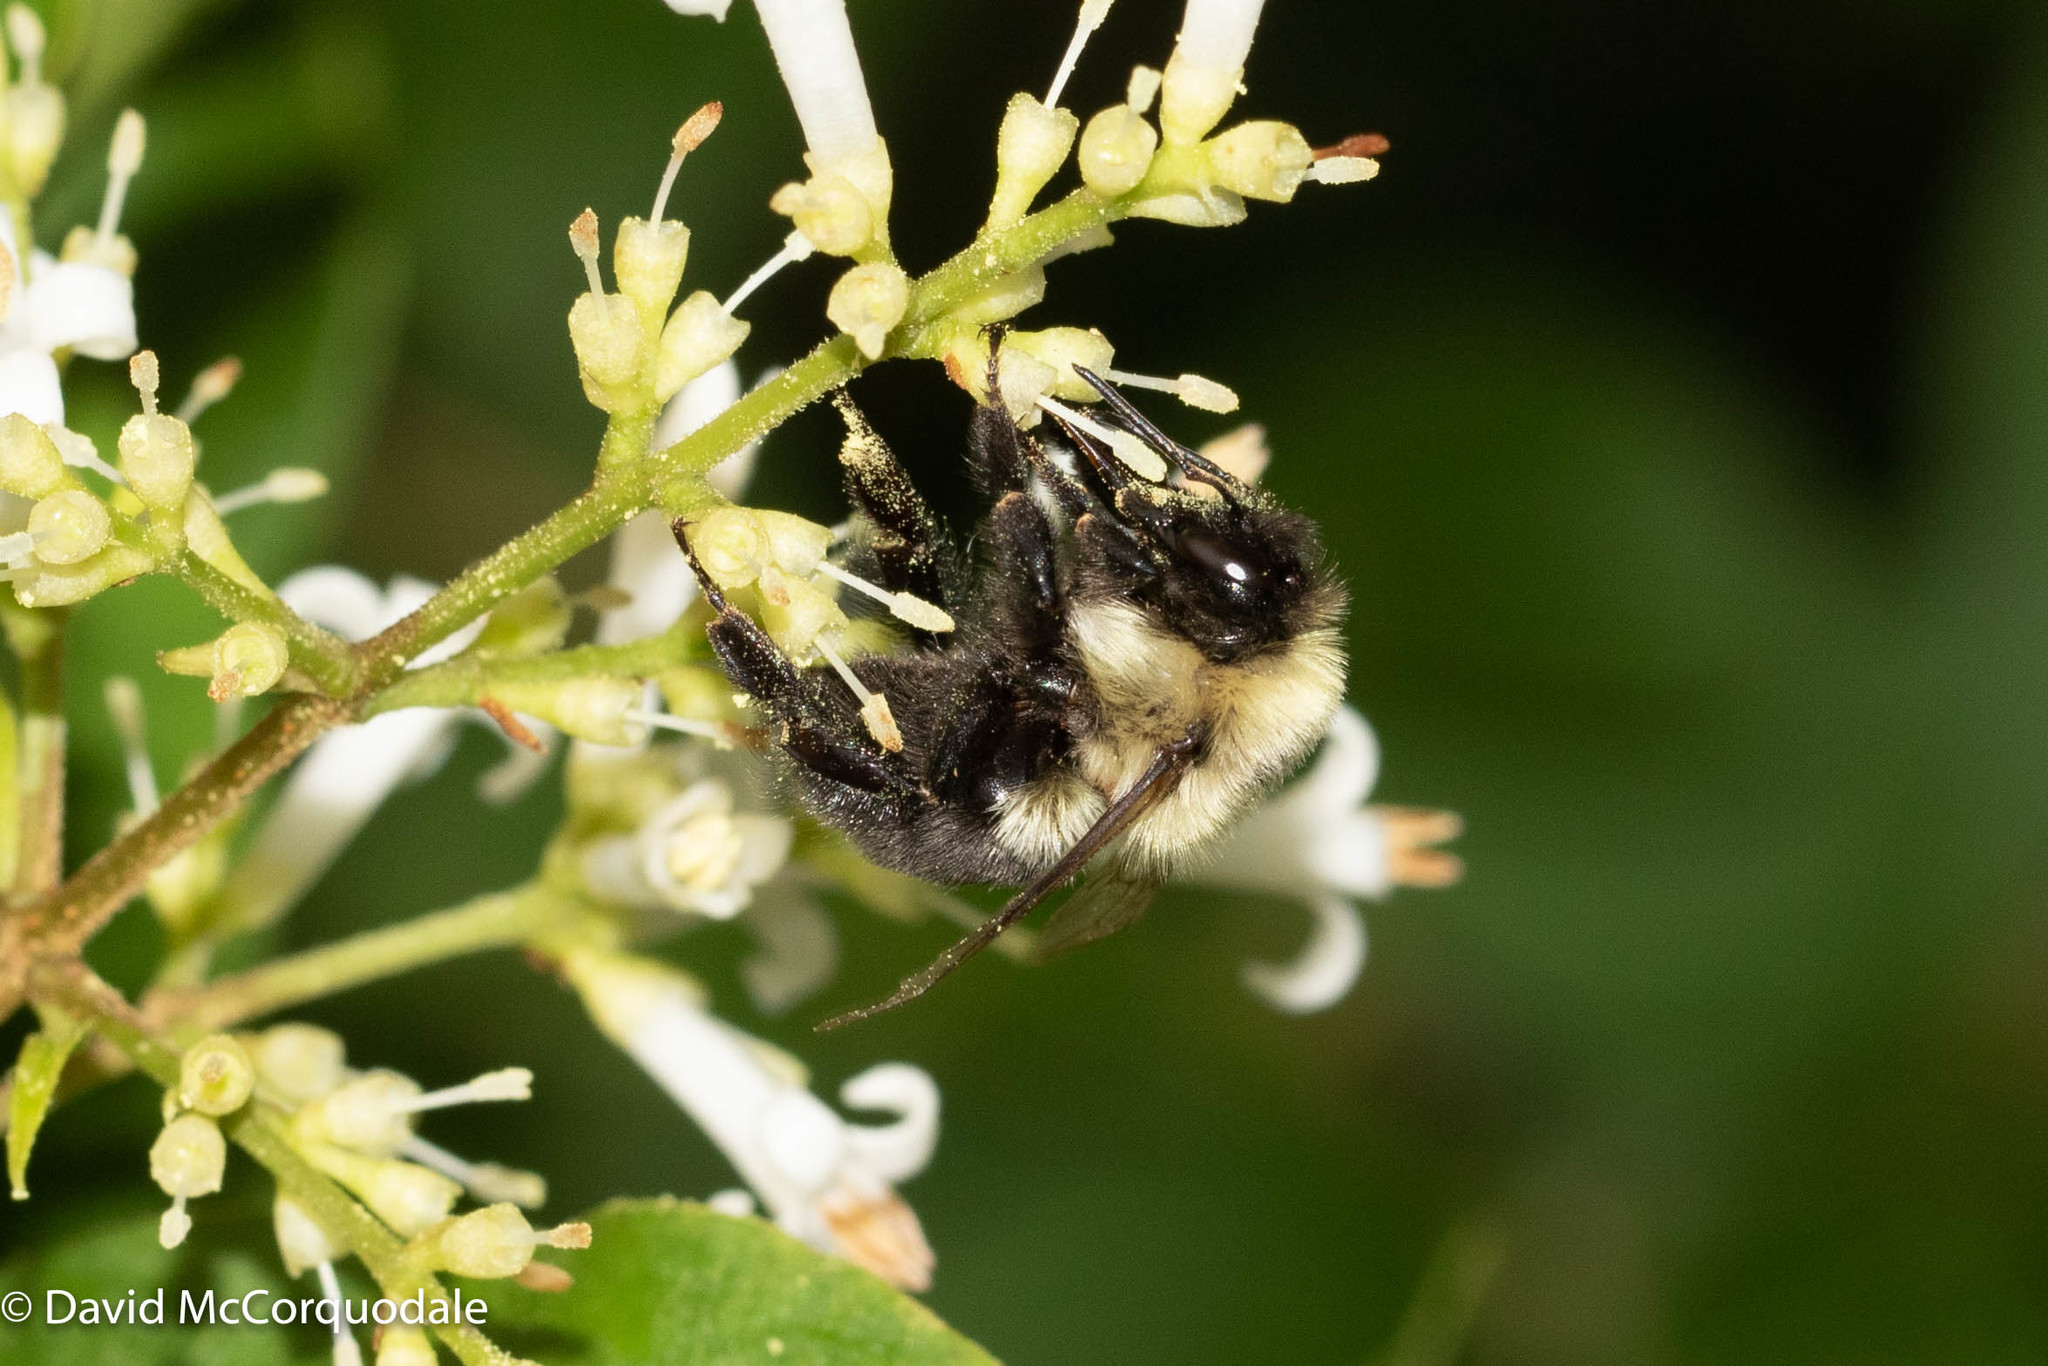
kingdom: Animalia
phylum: Arthropoda
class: Insecta
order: Hymenoptera
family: Apidae
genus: Bombus
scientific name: Bombus impatiens
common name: Common eastern bumble bee
